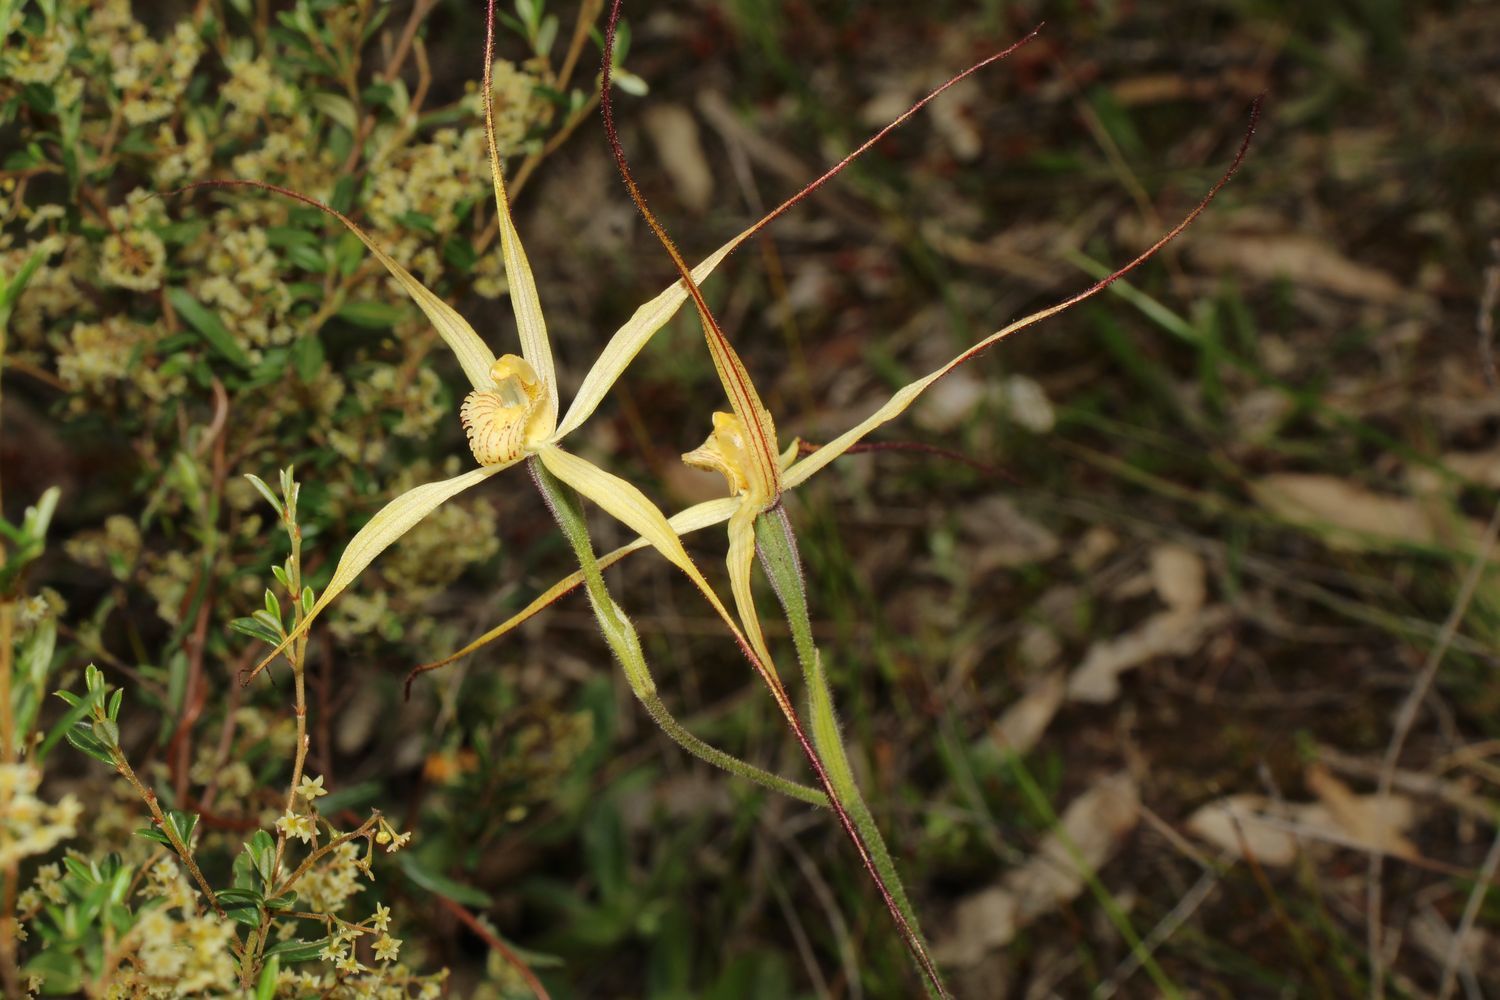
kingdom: Plantae
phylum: Tracheophyta
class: Liliopsida
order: Asparagales
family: Orchidaceae
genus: Caladenia
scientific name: Caladenia straminichila
